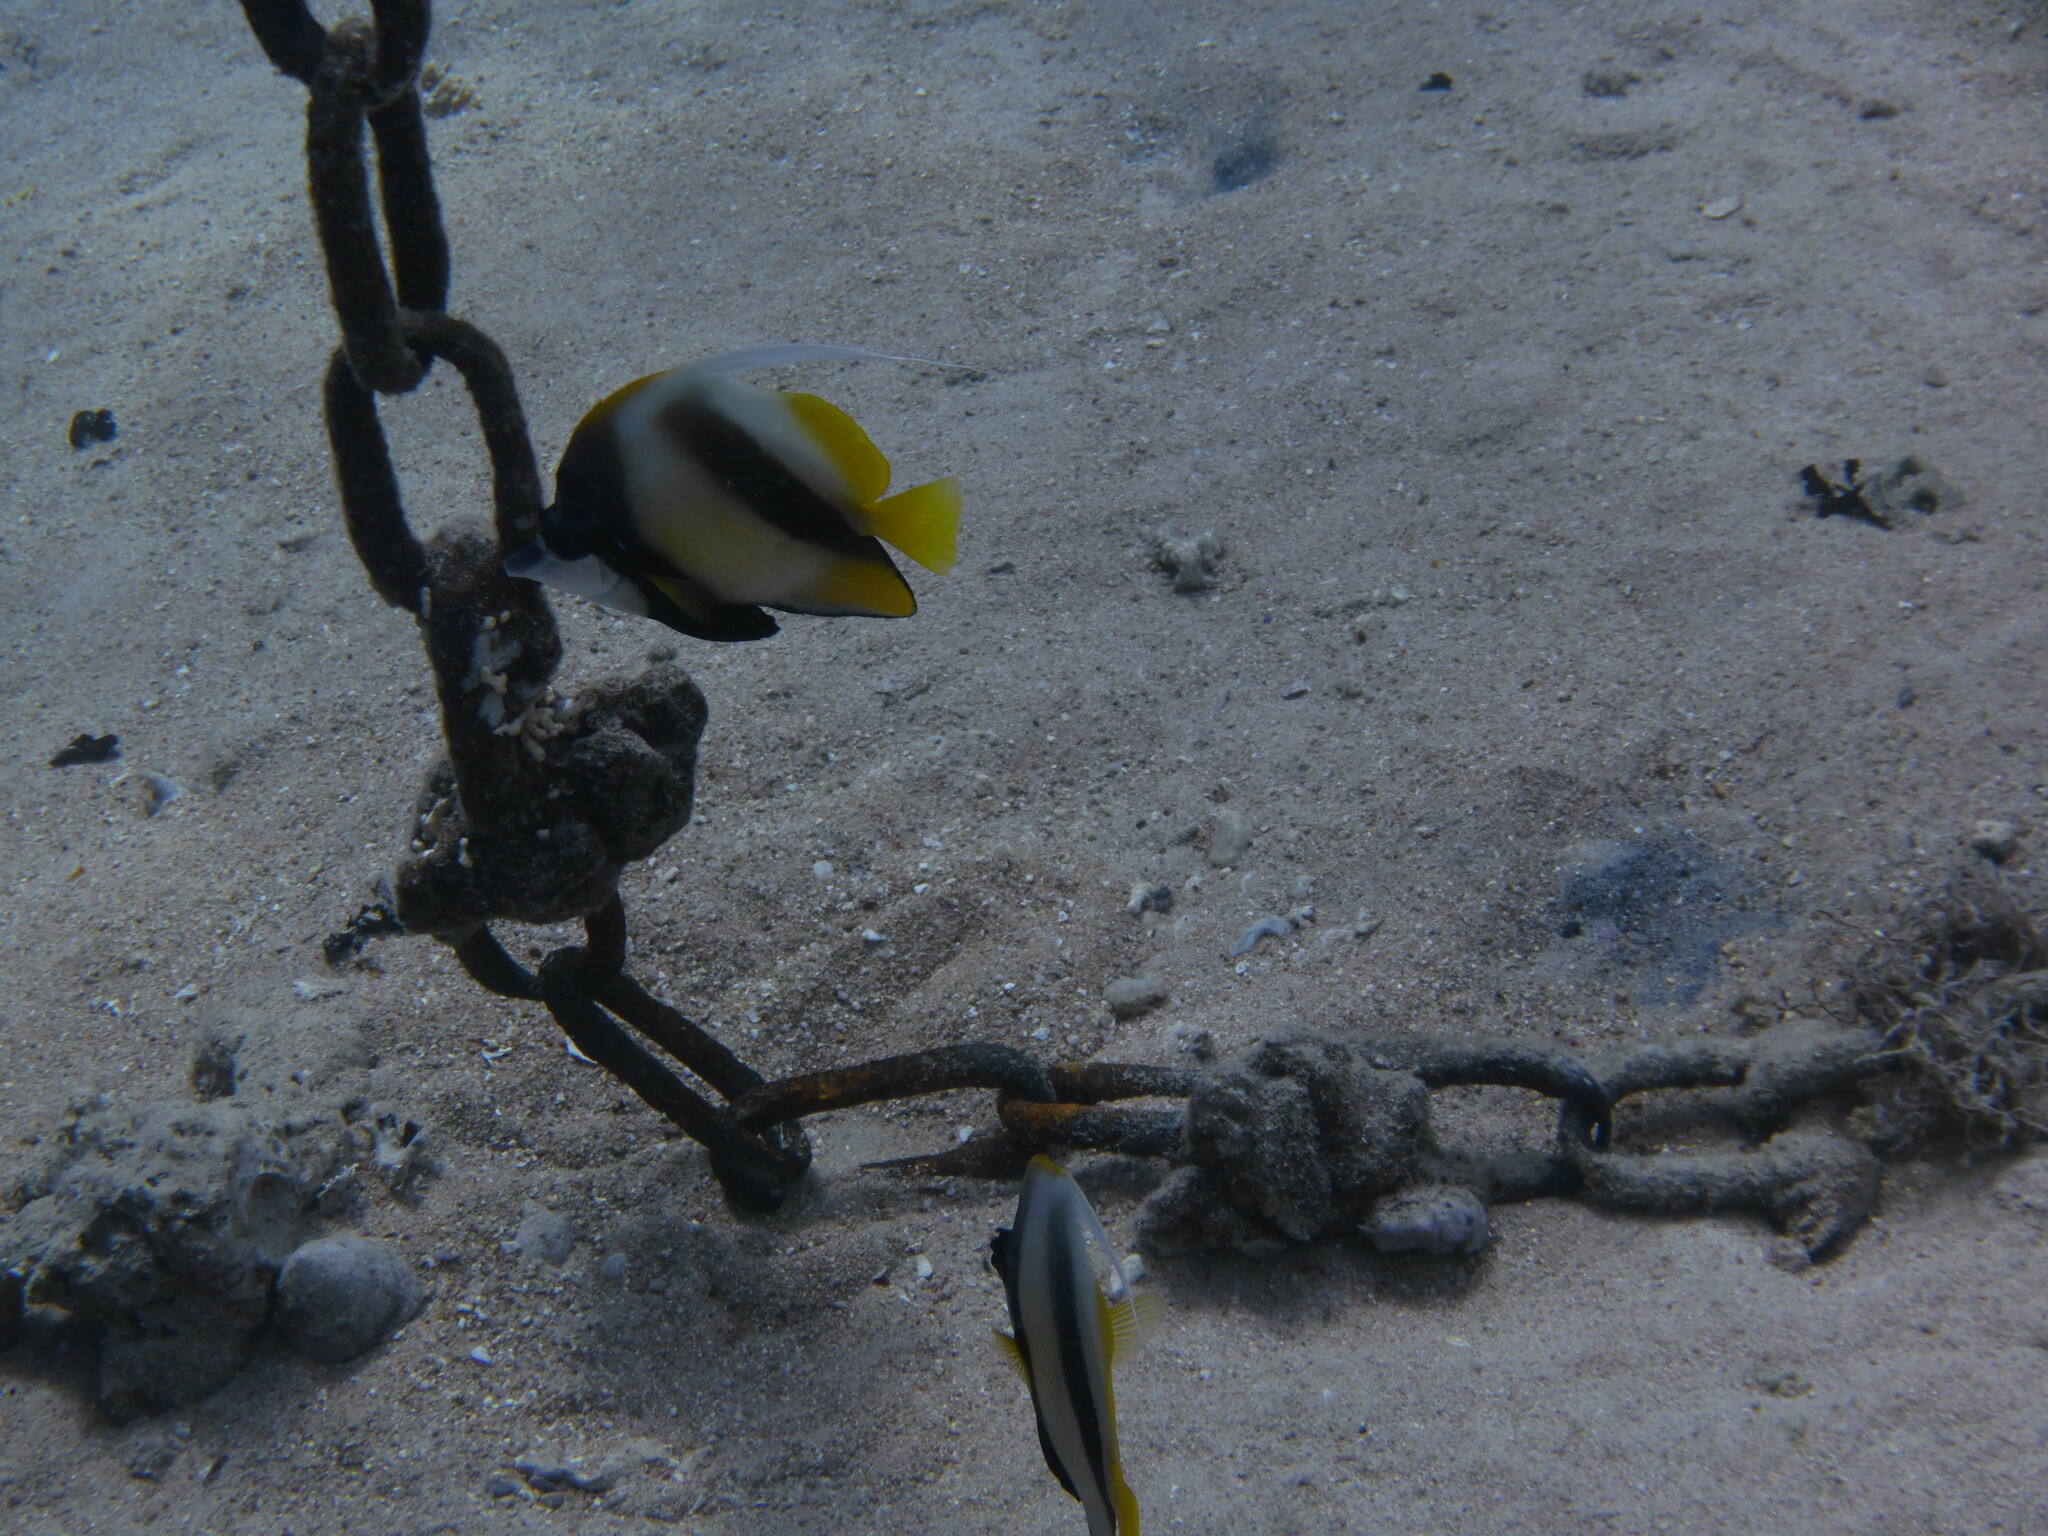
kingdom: Animalia
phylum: Chordata
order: Perciformes
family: Chaetodontidae
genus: Heniochus
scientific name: Heniochus intermedius
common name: Red sea bannerfish
